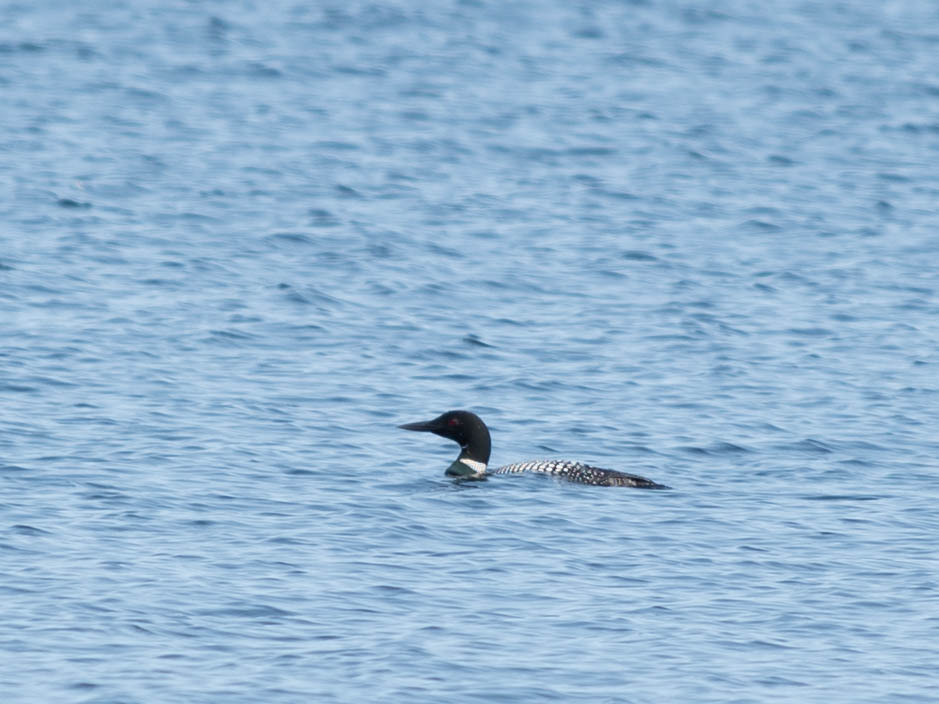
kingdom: Animalia
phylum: Chordata
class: Aves
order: Gaviiformes
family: Gaviidae
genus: Gavia
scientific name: Gavia immer
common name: Common loon
